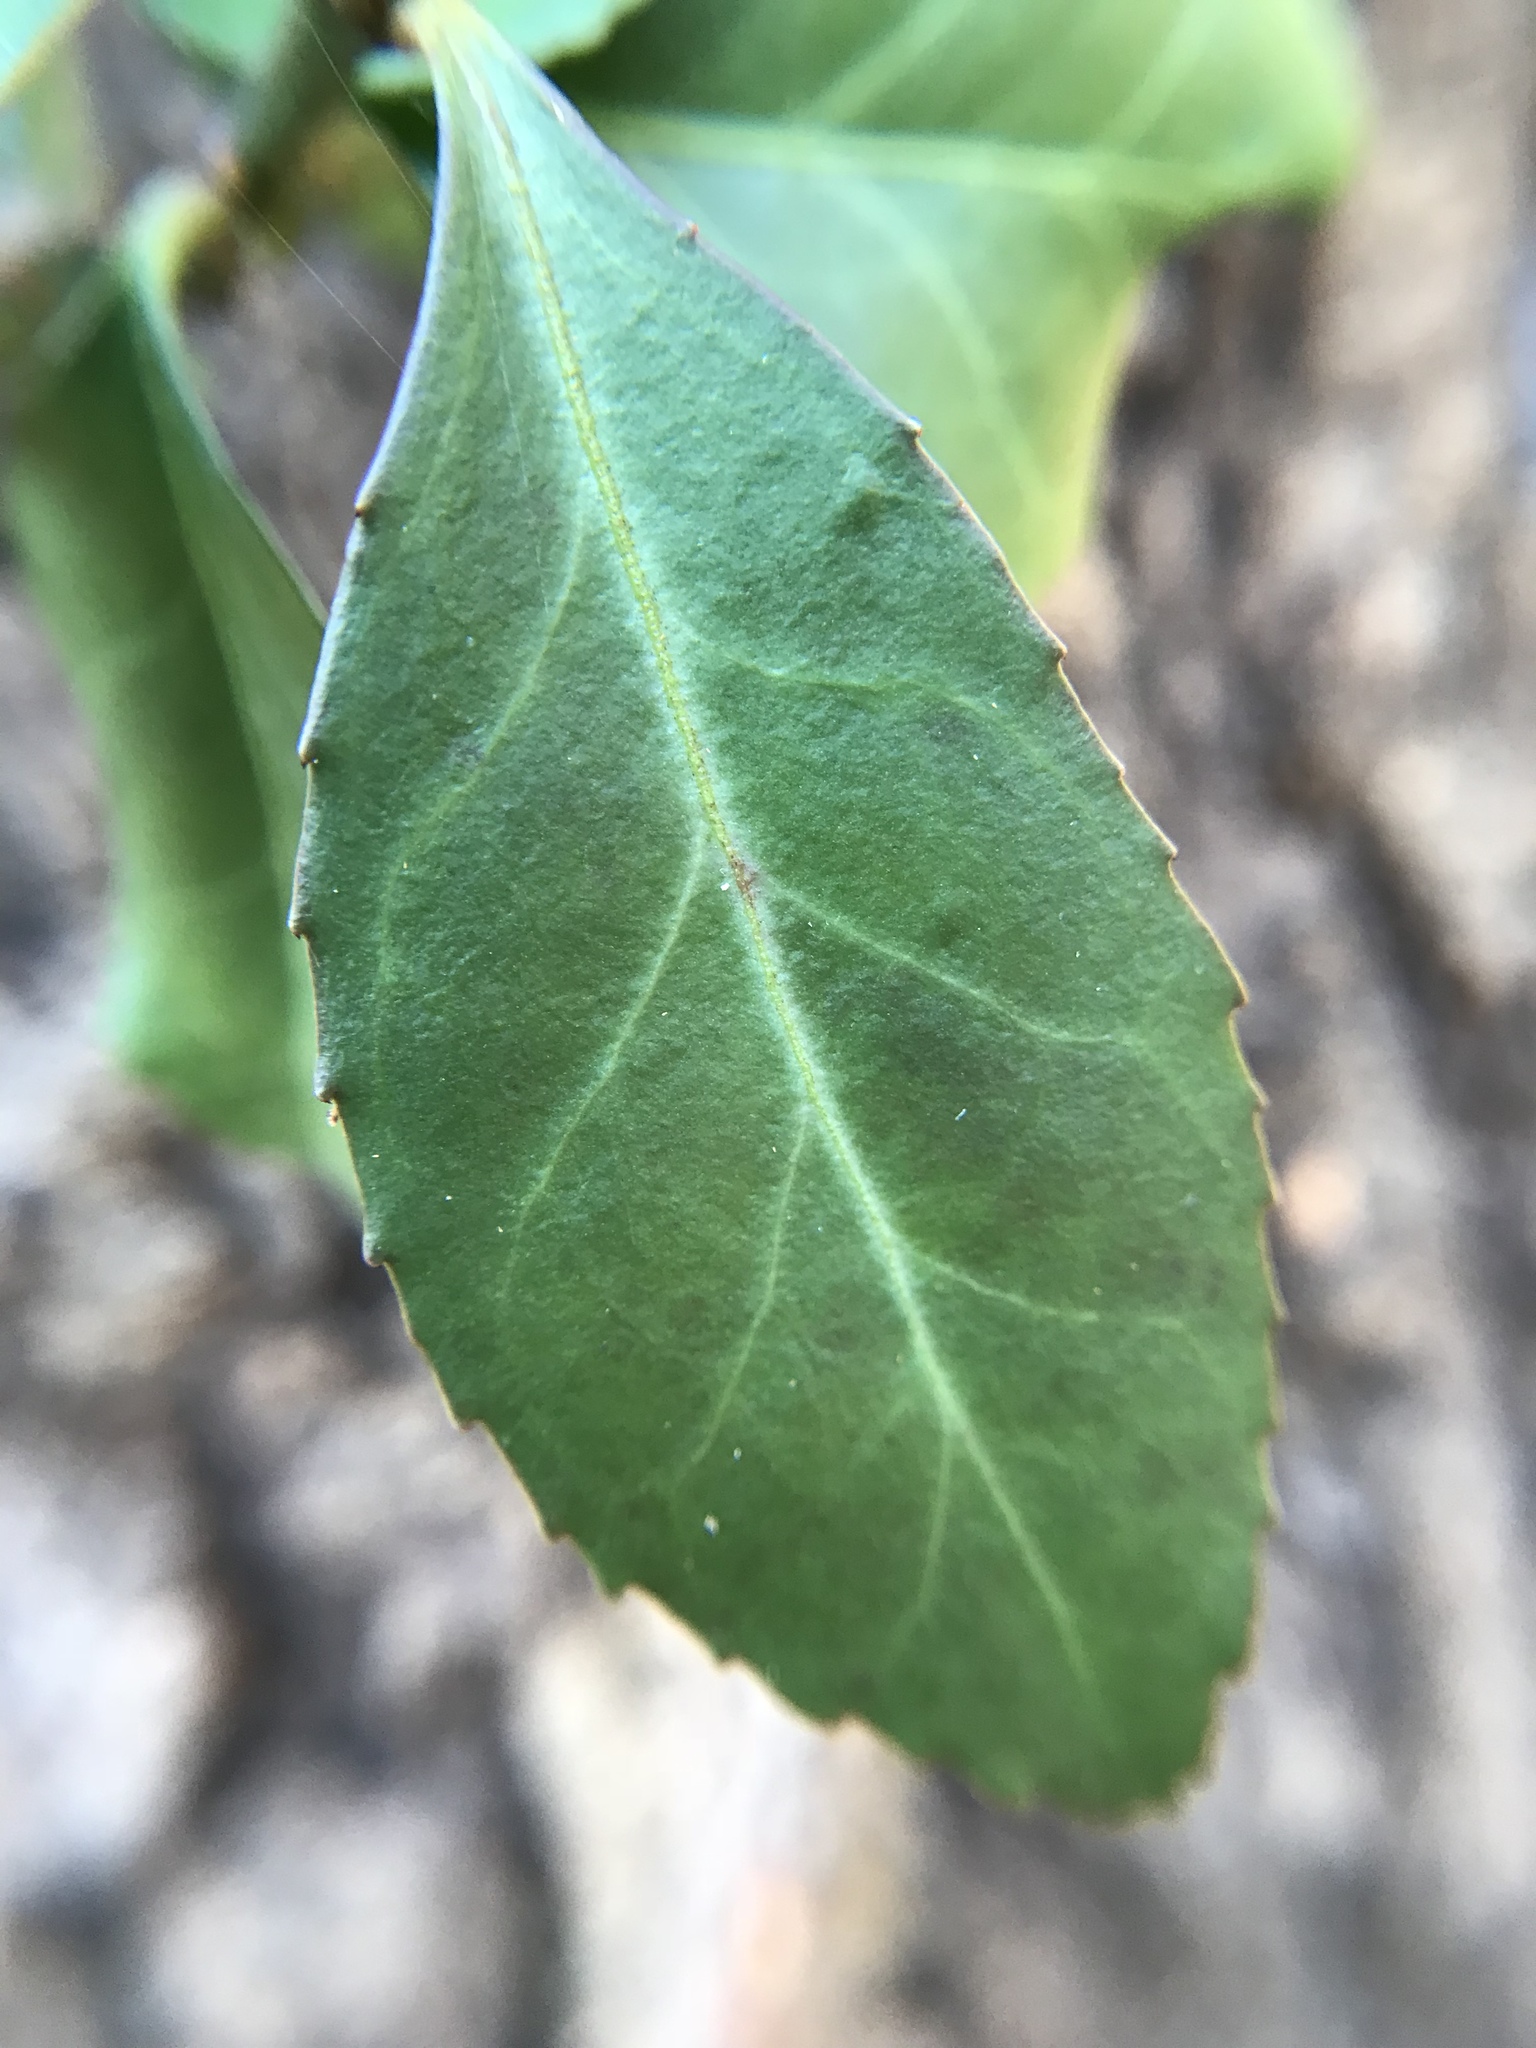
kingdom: Plantae
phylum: Tracheophyta
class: Magnoliopsida
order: Celastrales
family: Celastraceae
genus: Euonymus
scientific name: Euonymus fortunei
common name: Climbing euonymus
